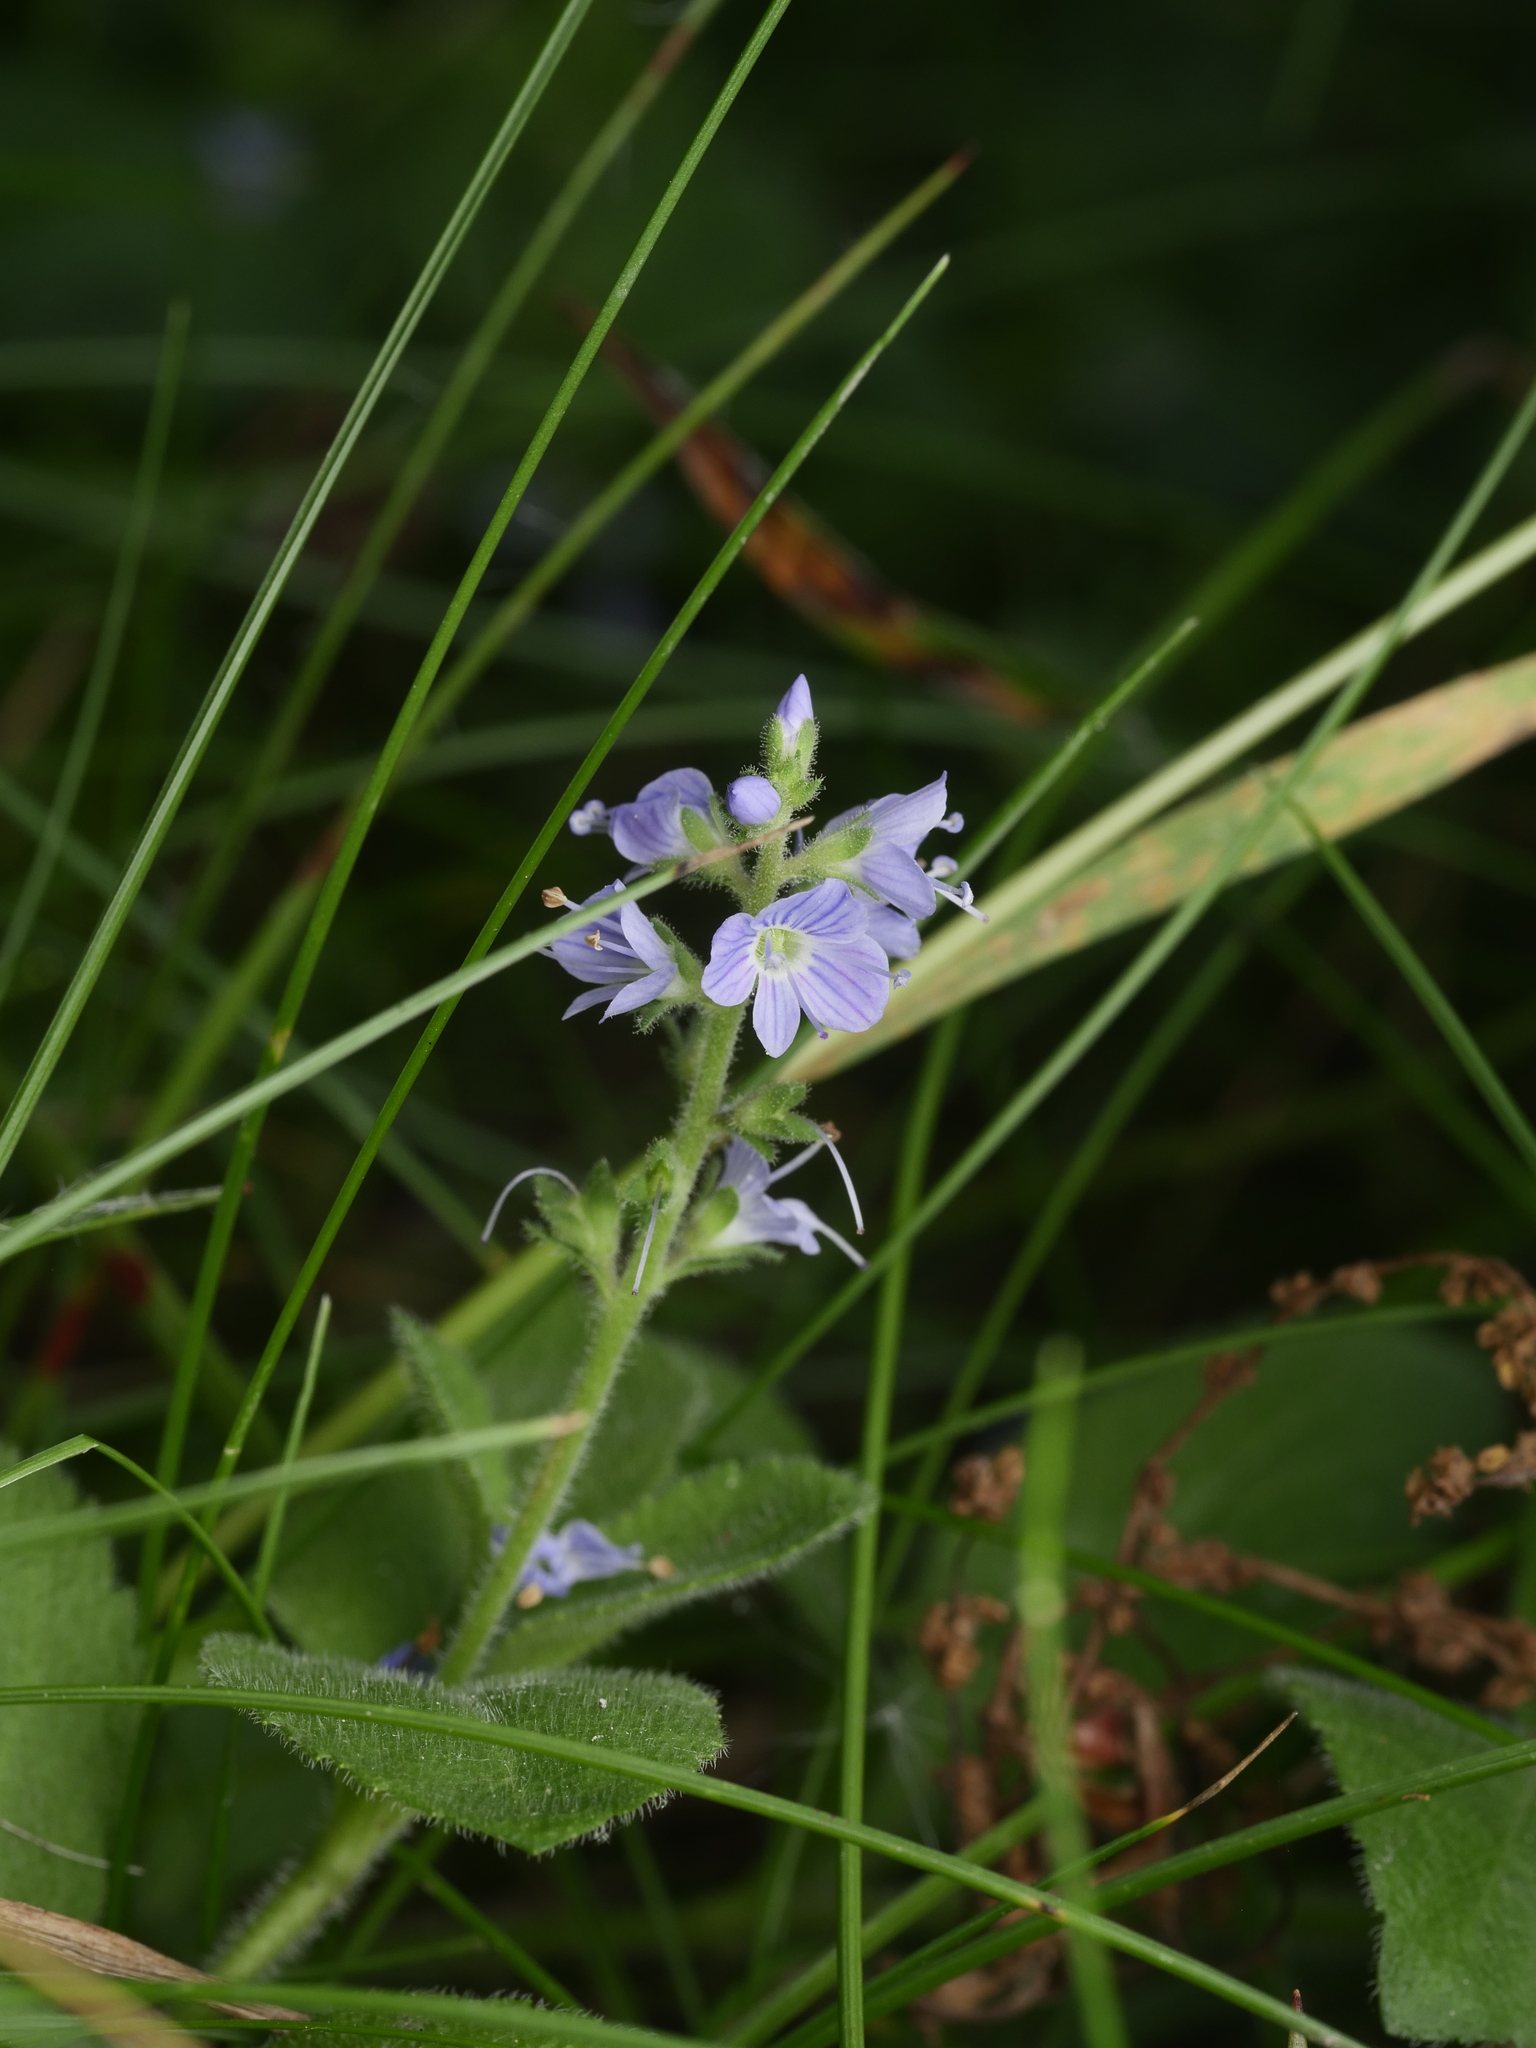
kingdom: Plantae
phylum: Tracheophyta
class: Magnoliopsida
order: Lamiales
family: Plantaginaceae
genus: Veronica
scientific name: Veronica officinalis
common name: Common speedwell
